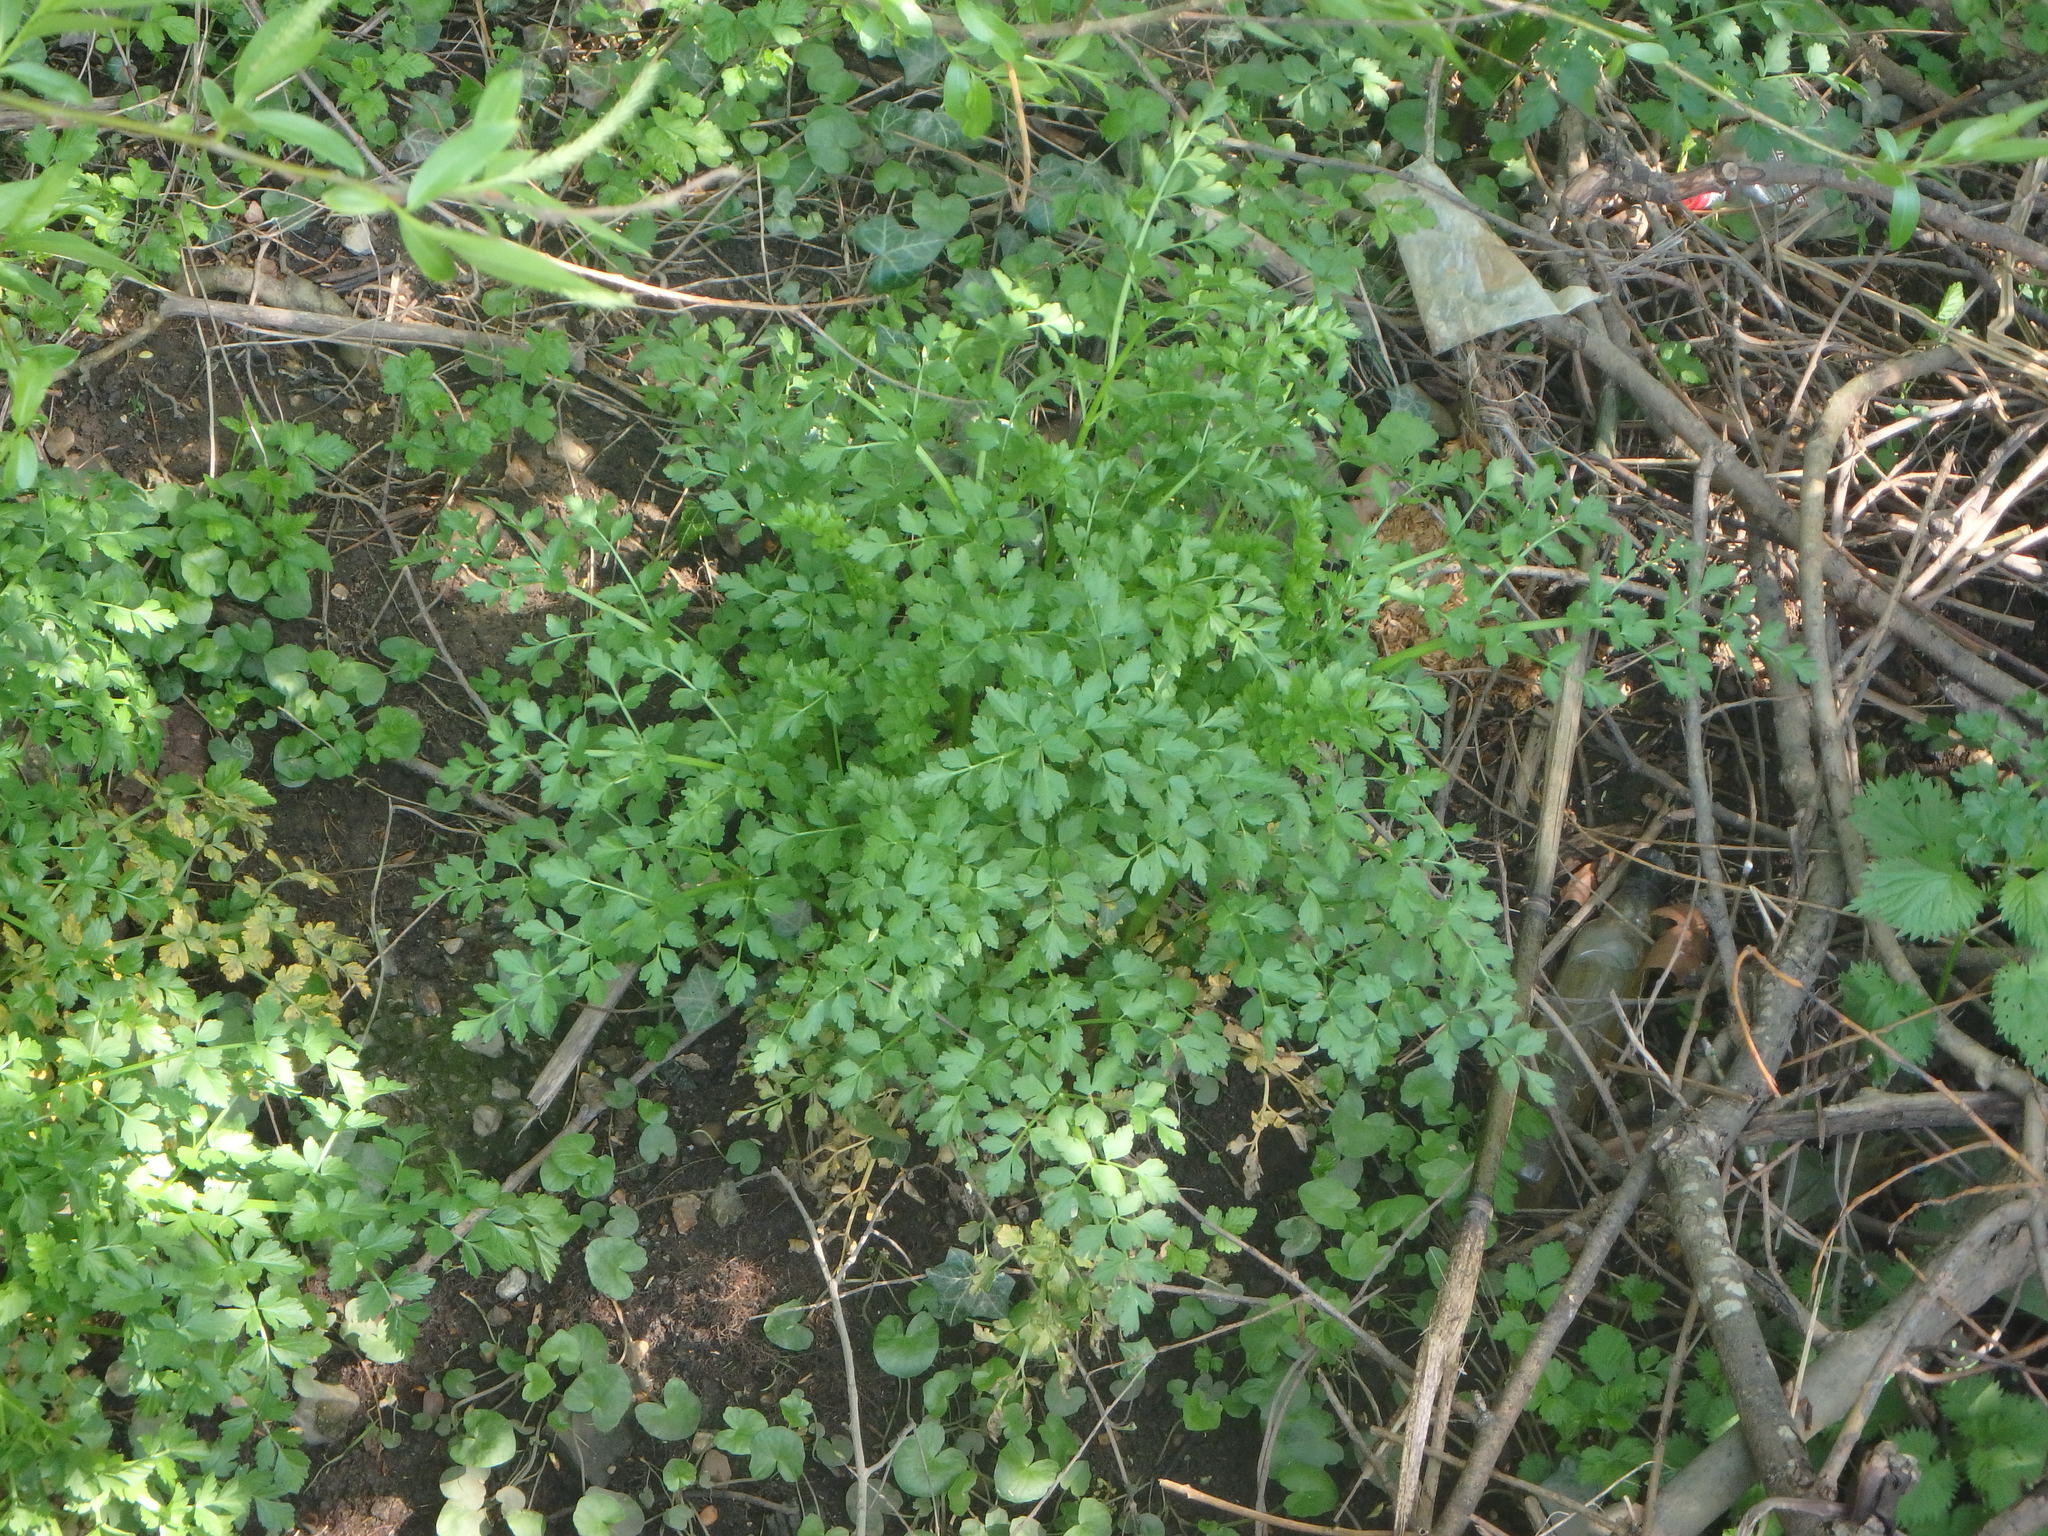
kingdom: Plantae
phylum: Tracheophyta
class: Magnoliopsida
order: Apiales
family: Apiaceae
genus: Oenanthe
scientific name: Oenanthe crocata
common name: Hemlock water-dropwort
